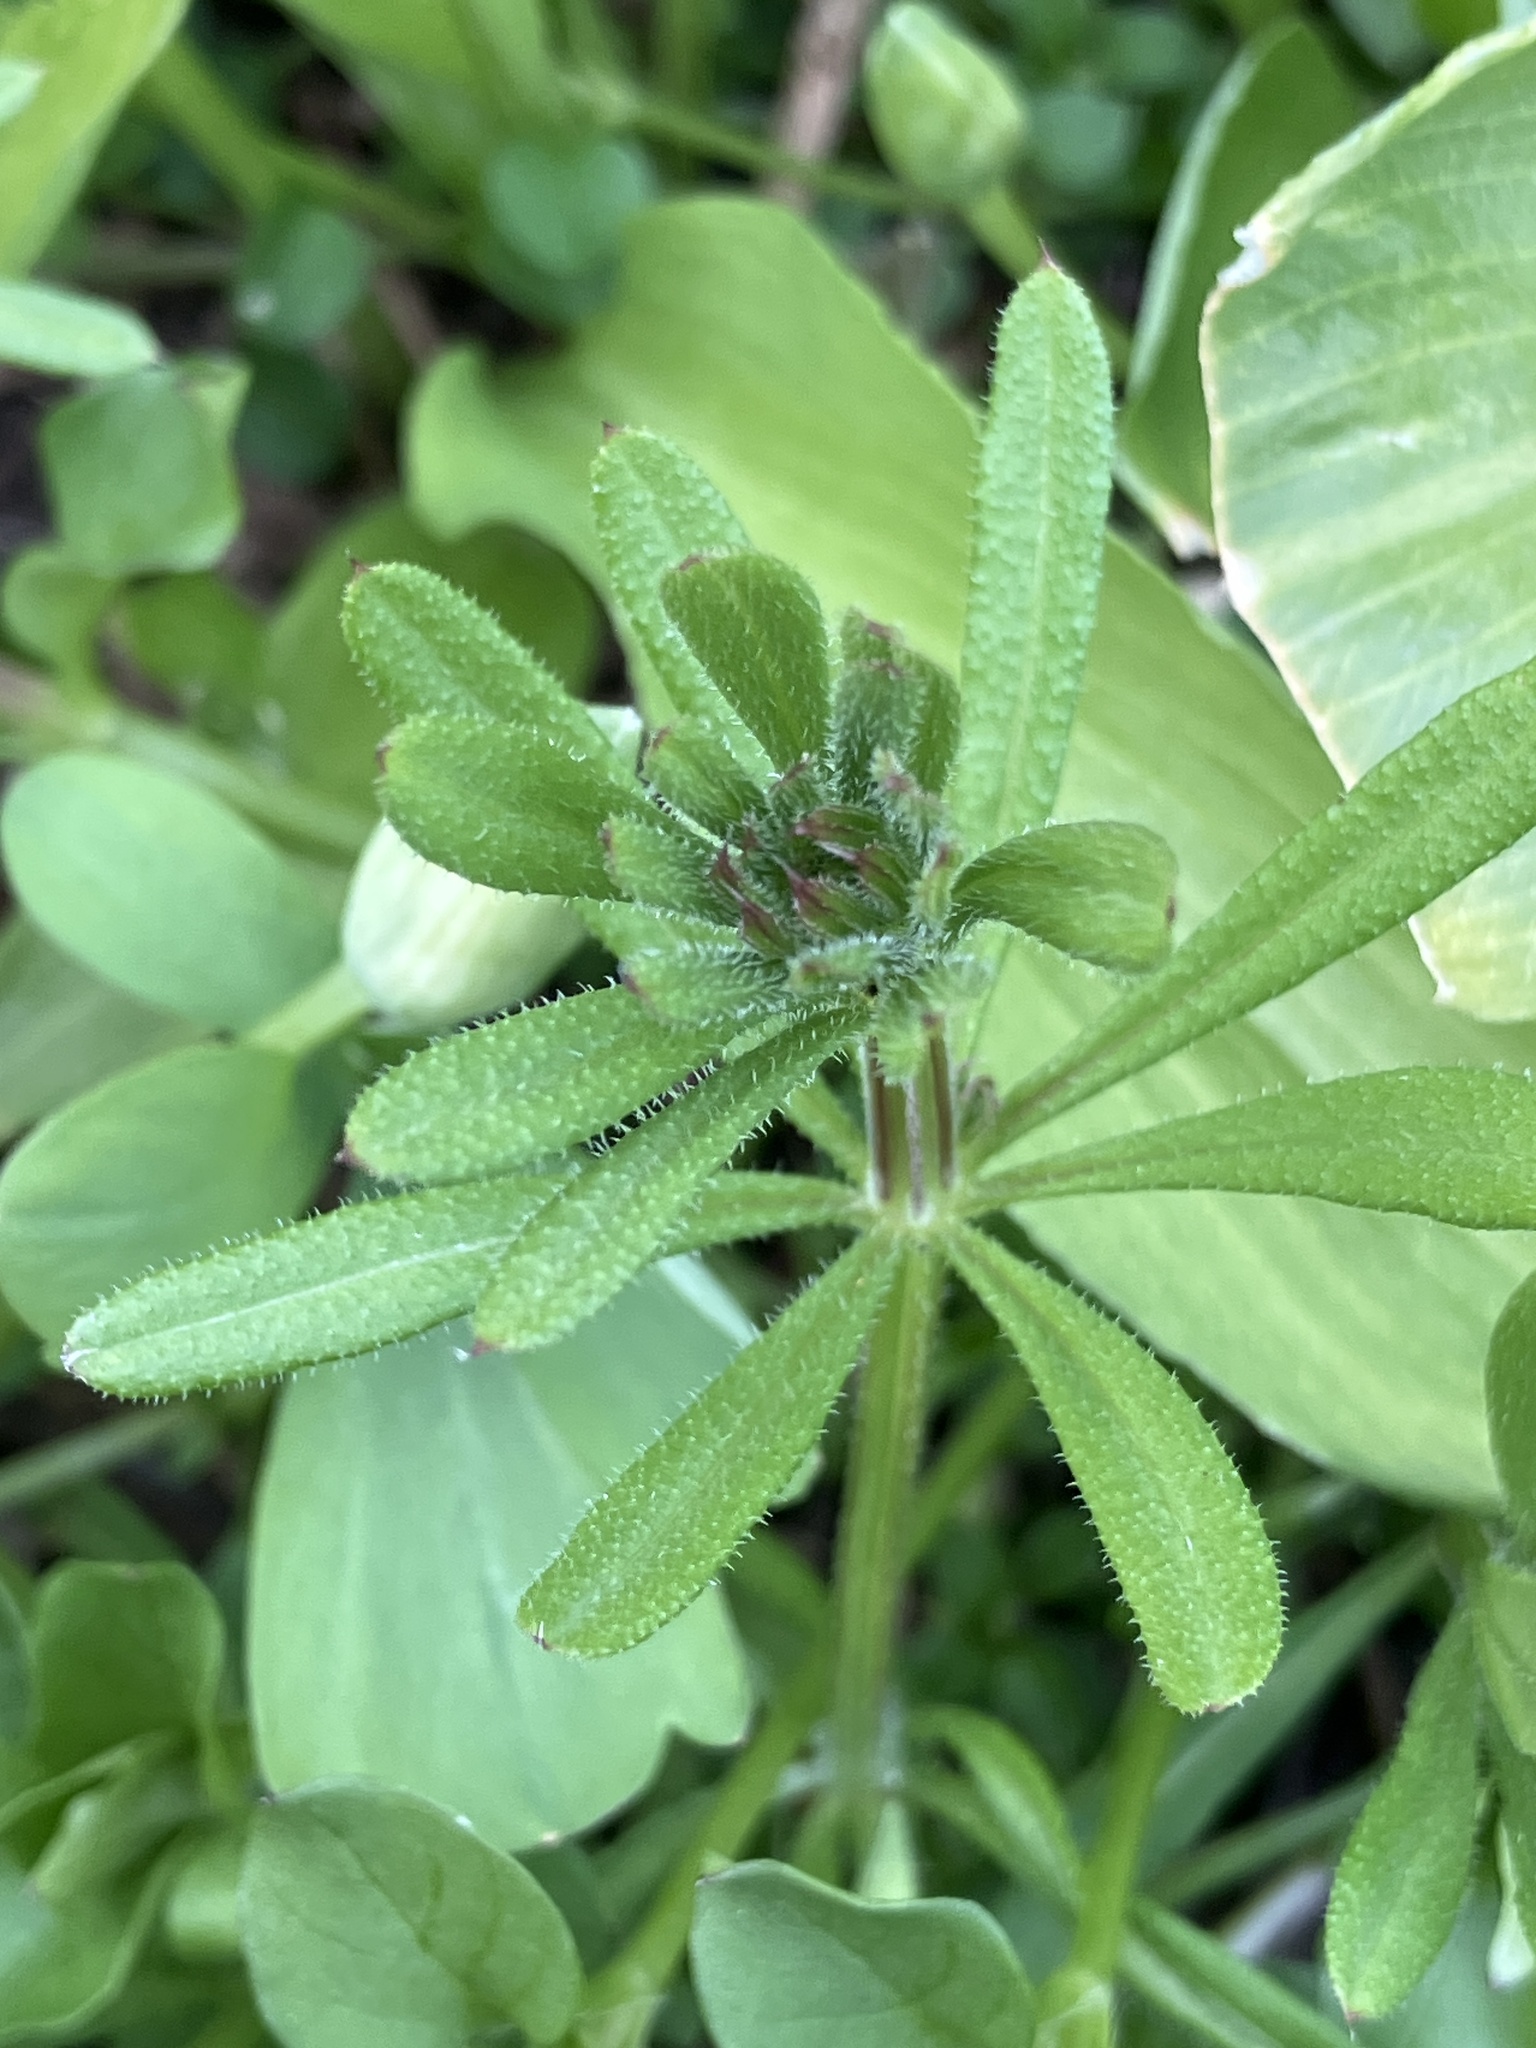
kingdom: Plantae
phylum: Tracheophyta
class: Magnoliopsida
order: Gentianales
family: Rubiaceae
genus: Galium
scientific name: Galium aparine
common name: Cleavers
